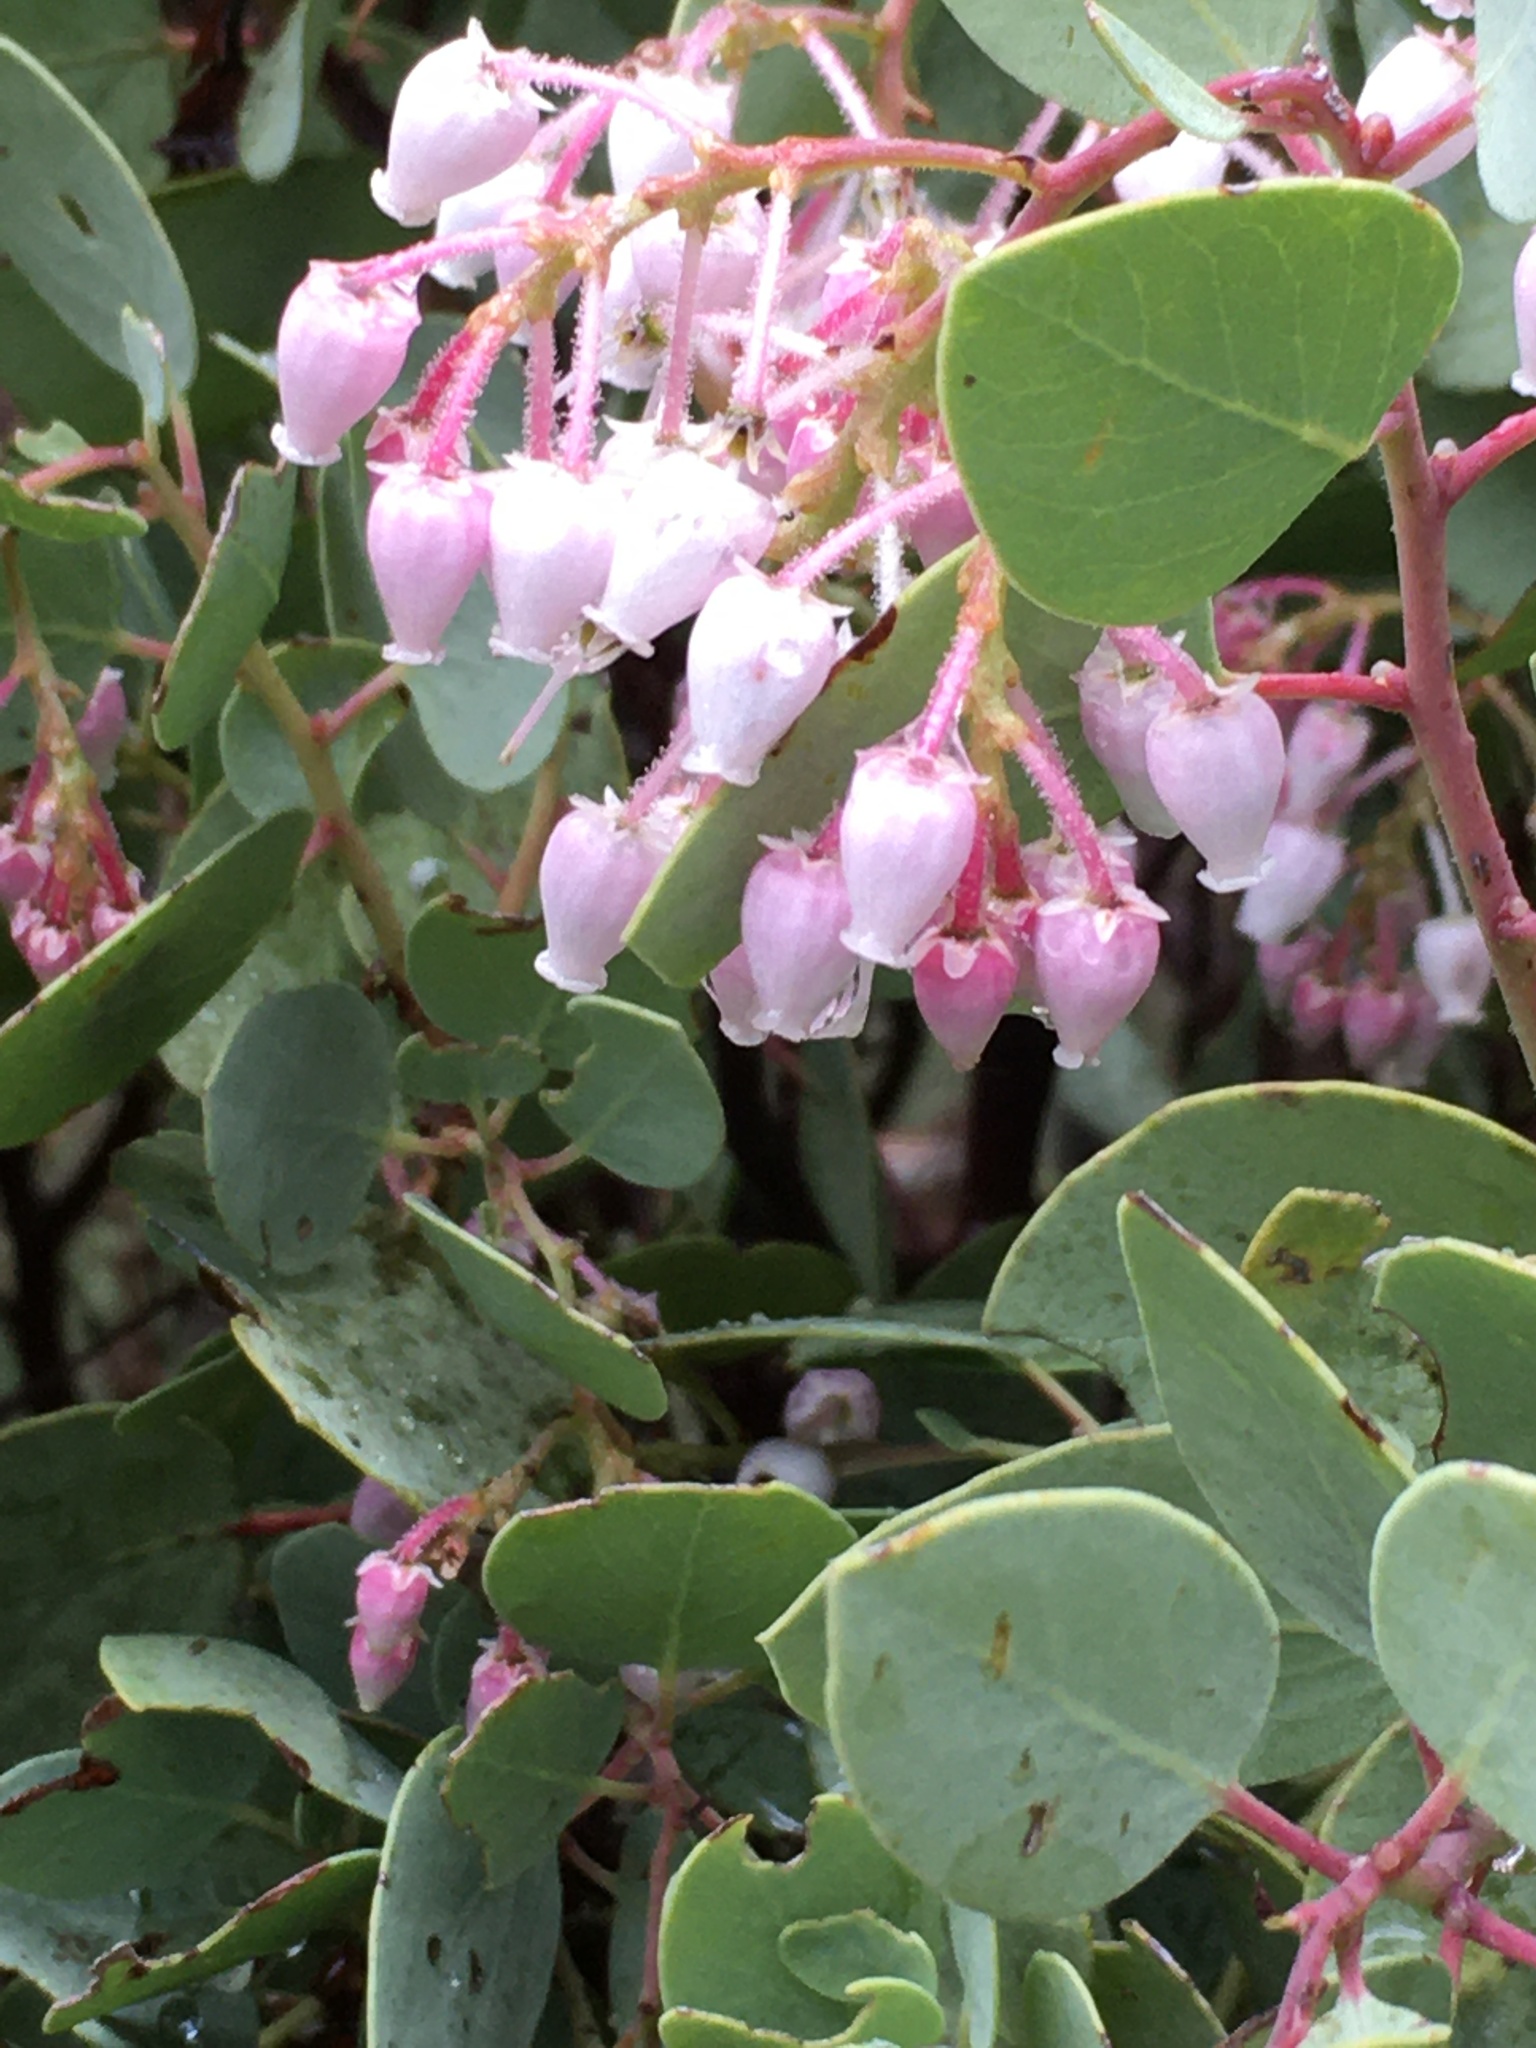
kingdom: Plantae
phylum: Tracheophyta
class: Magnoliopsida
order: Ericales
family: Ericaceae
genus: Arctostaphylos
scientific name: Arctostaphylos viscida
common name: White-leaf manzanita
